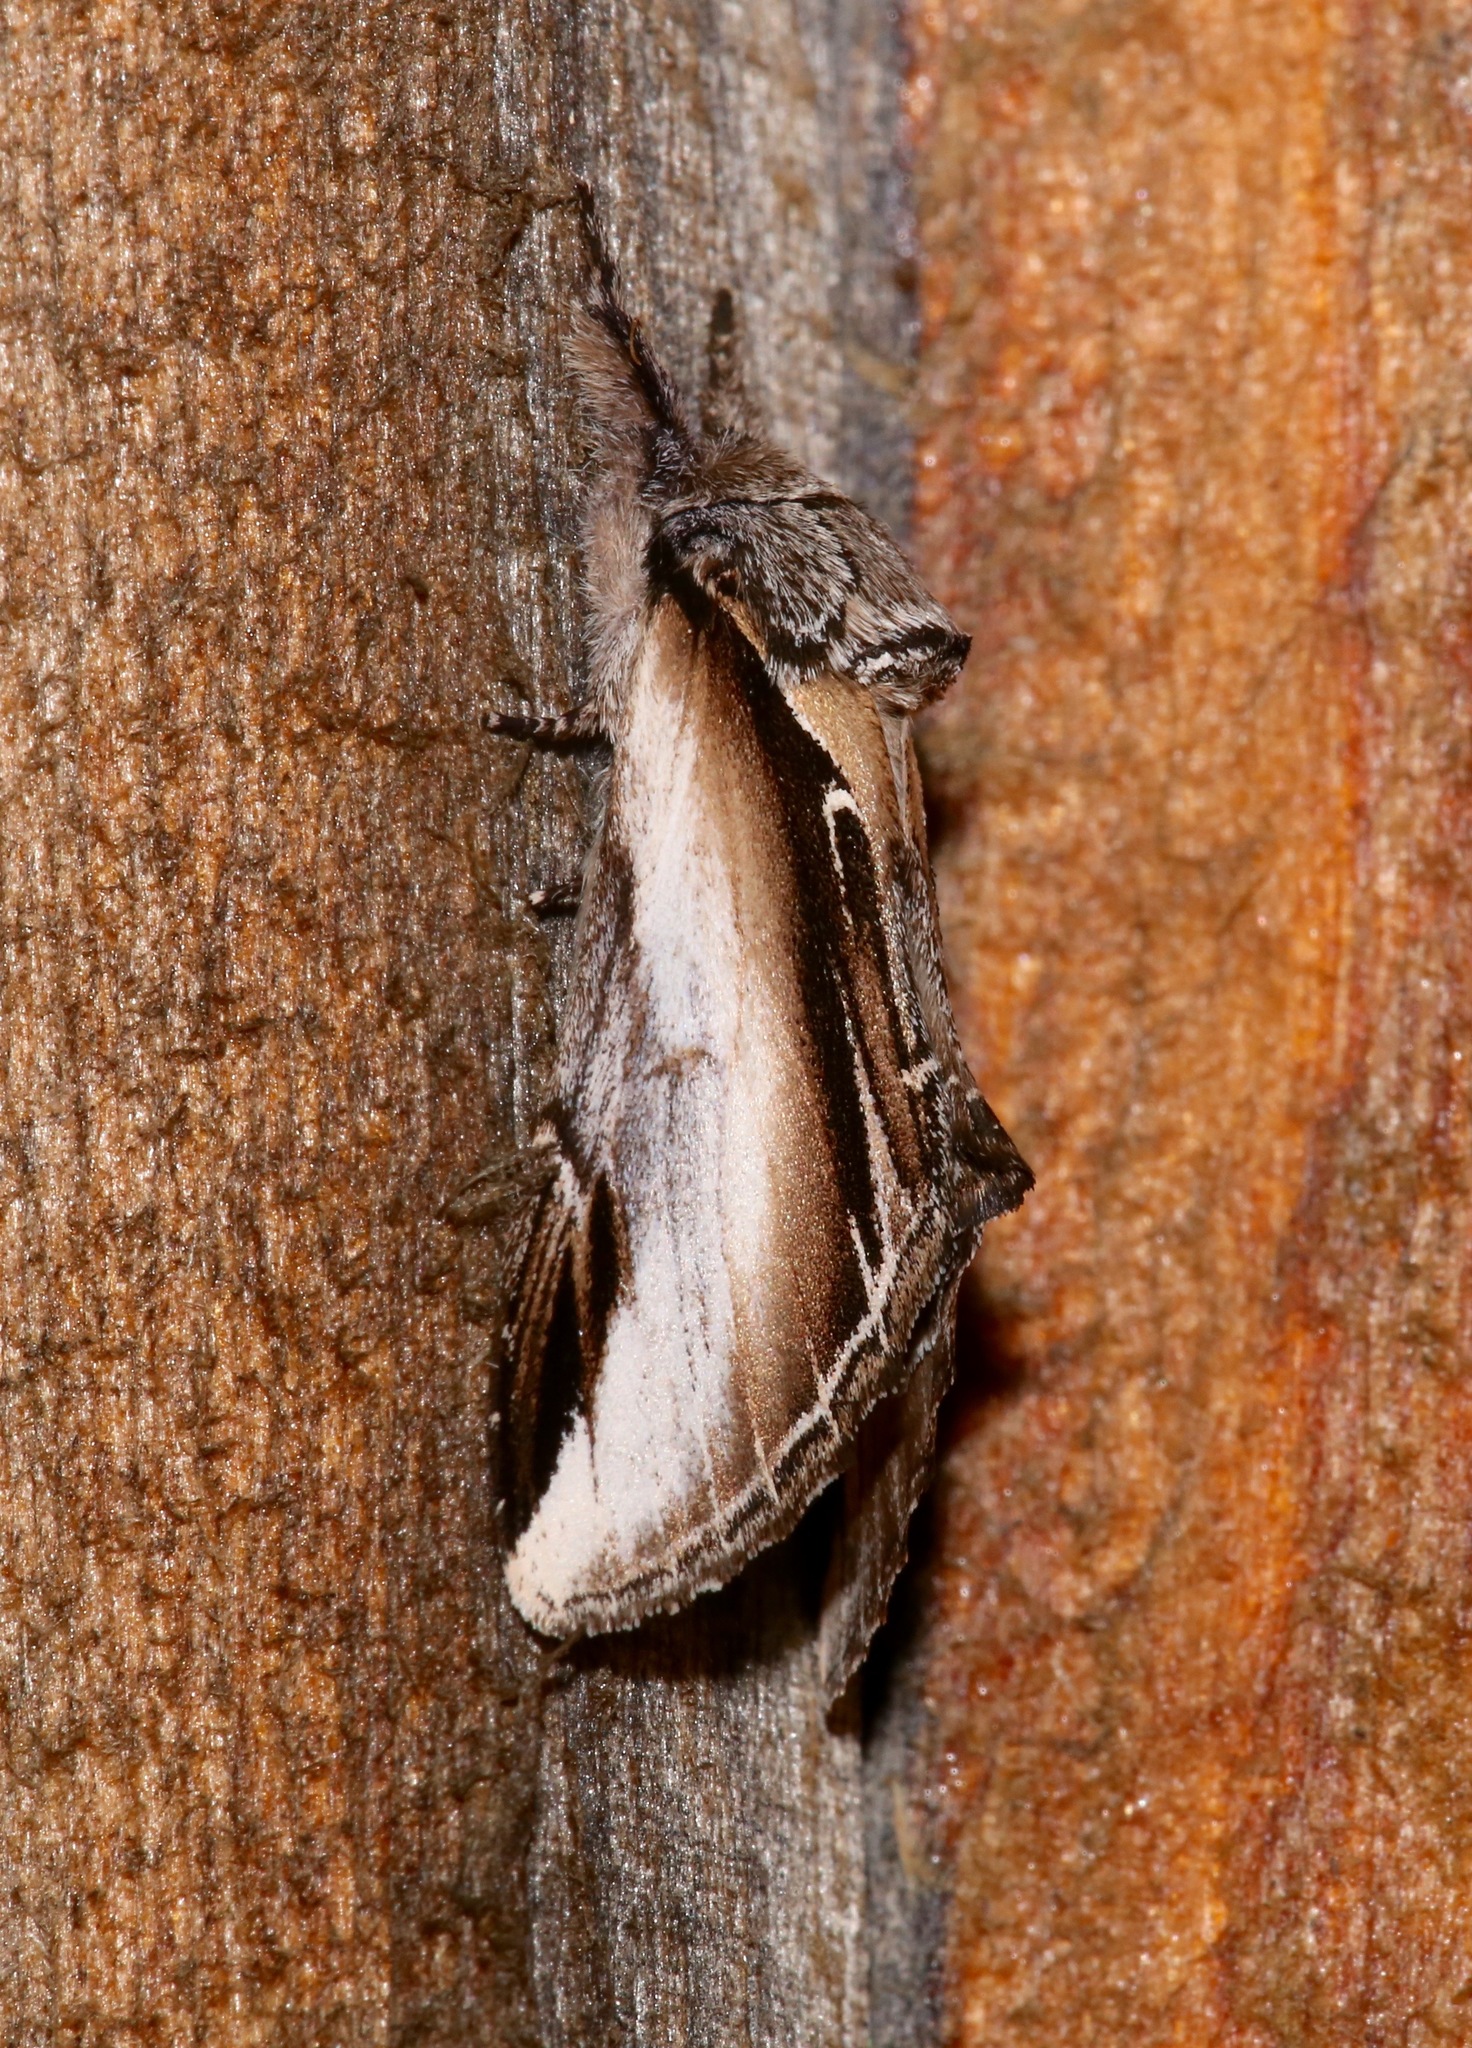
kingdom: Animalia
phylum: Arthropoda
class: Insecta
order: Lepidoptera
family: Notodontidae
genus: Pheosia
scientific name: Pheosia rimosa
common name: Black-rimmed prominent
